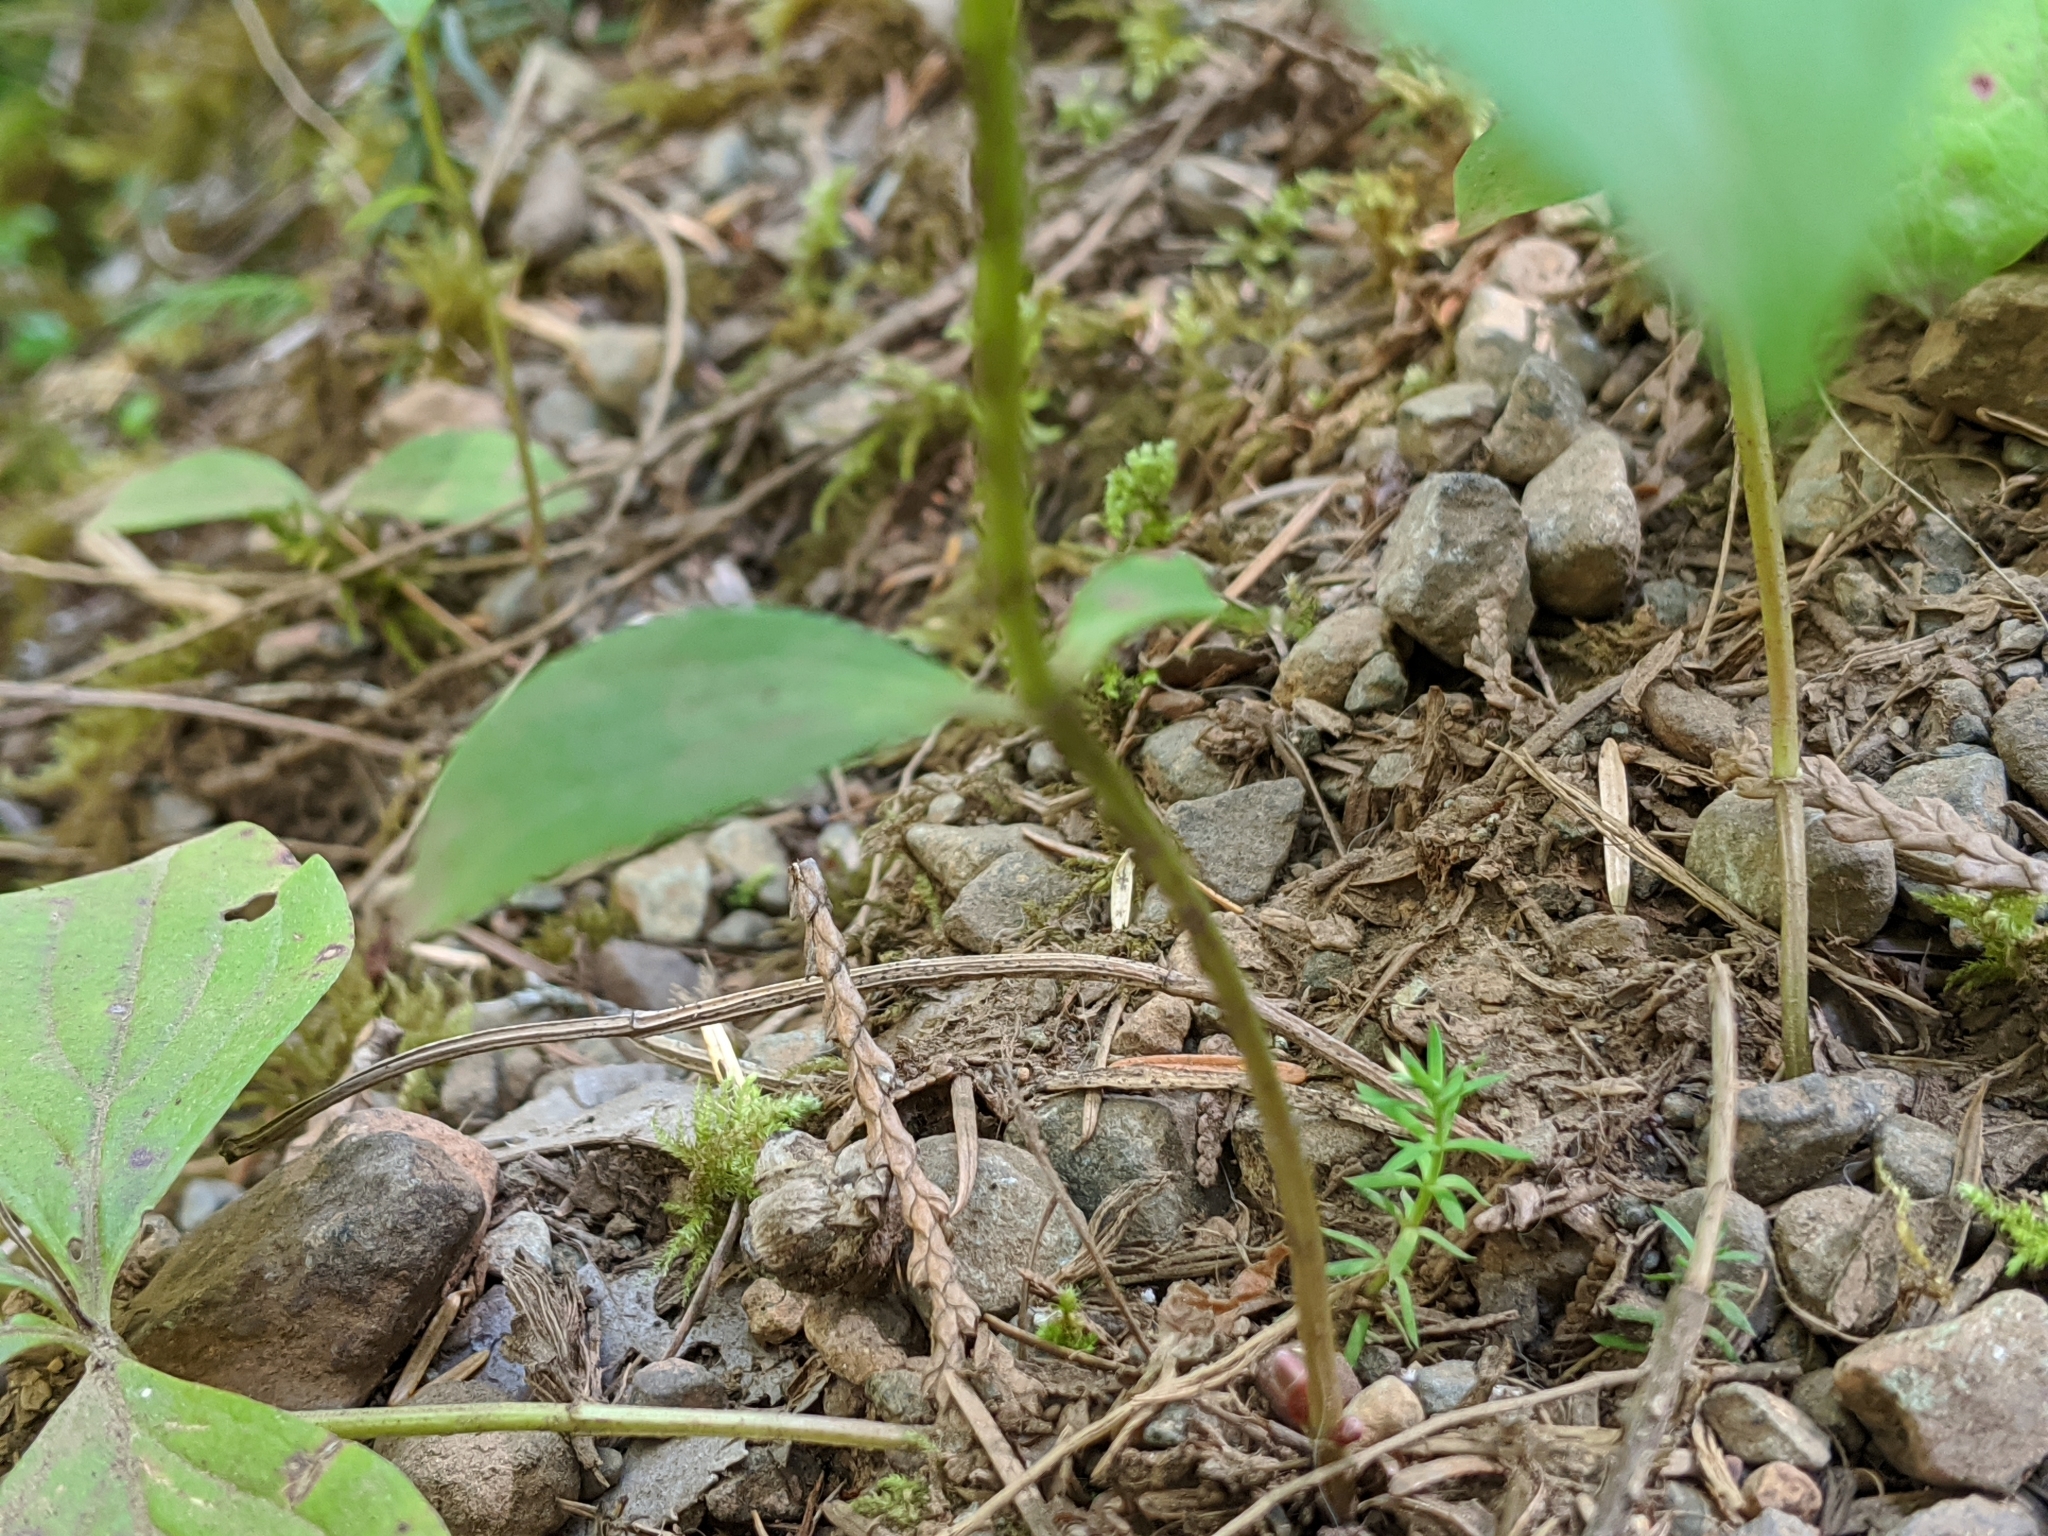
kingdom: Plantae
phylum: Tracheophyta
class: Magnoliopsida
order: Cornales
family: Cornaceae
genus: Cornus
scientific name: Cornus unalaschkensis
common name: Alaska bunchberry
